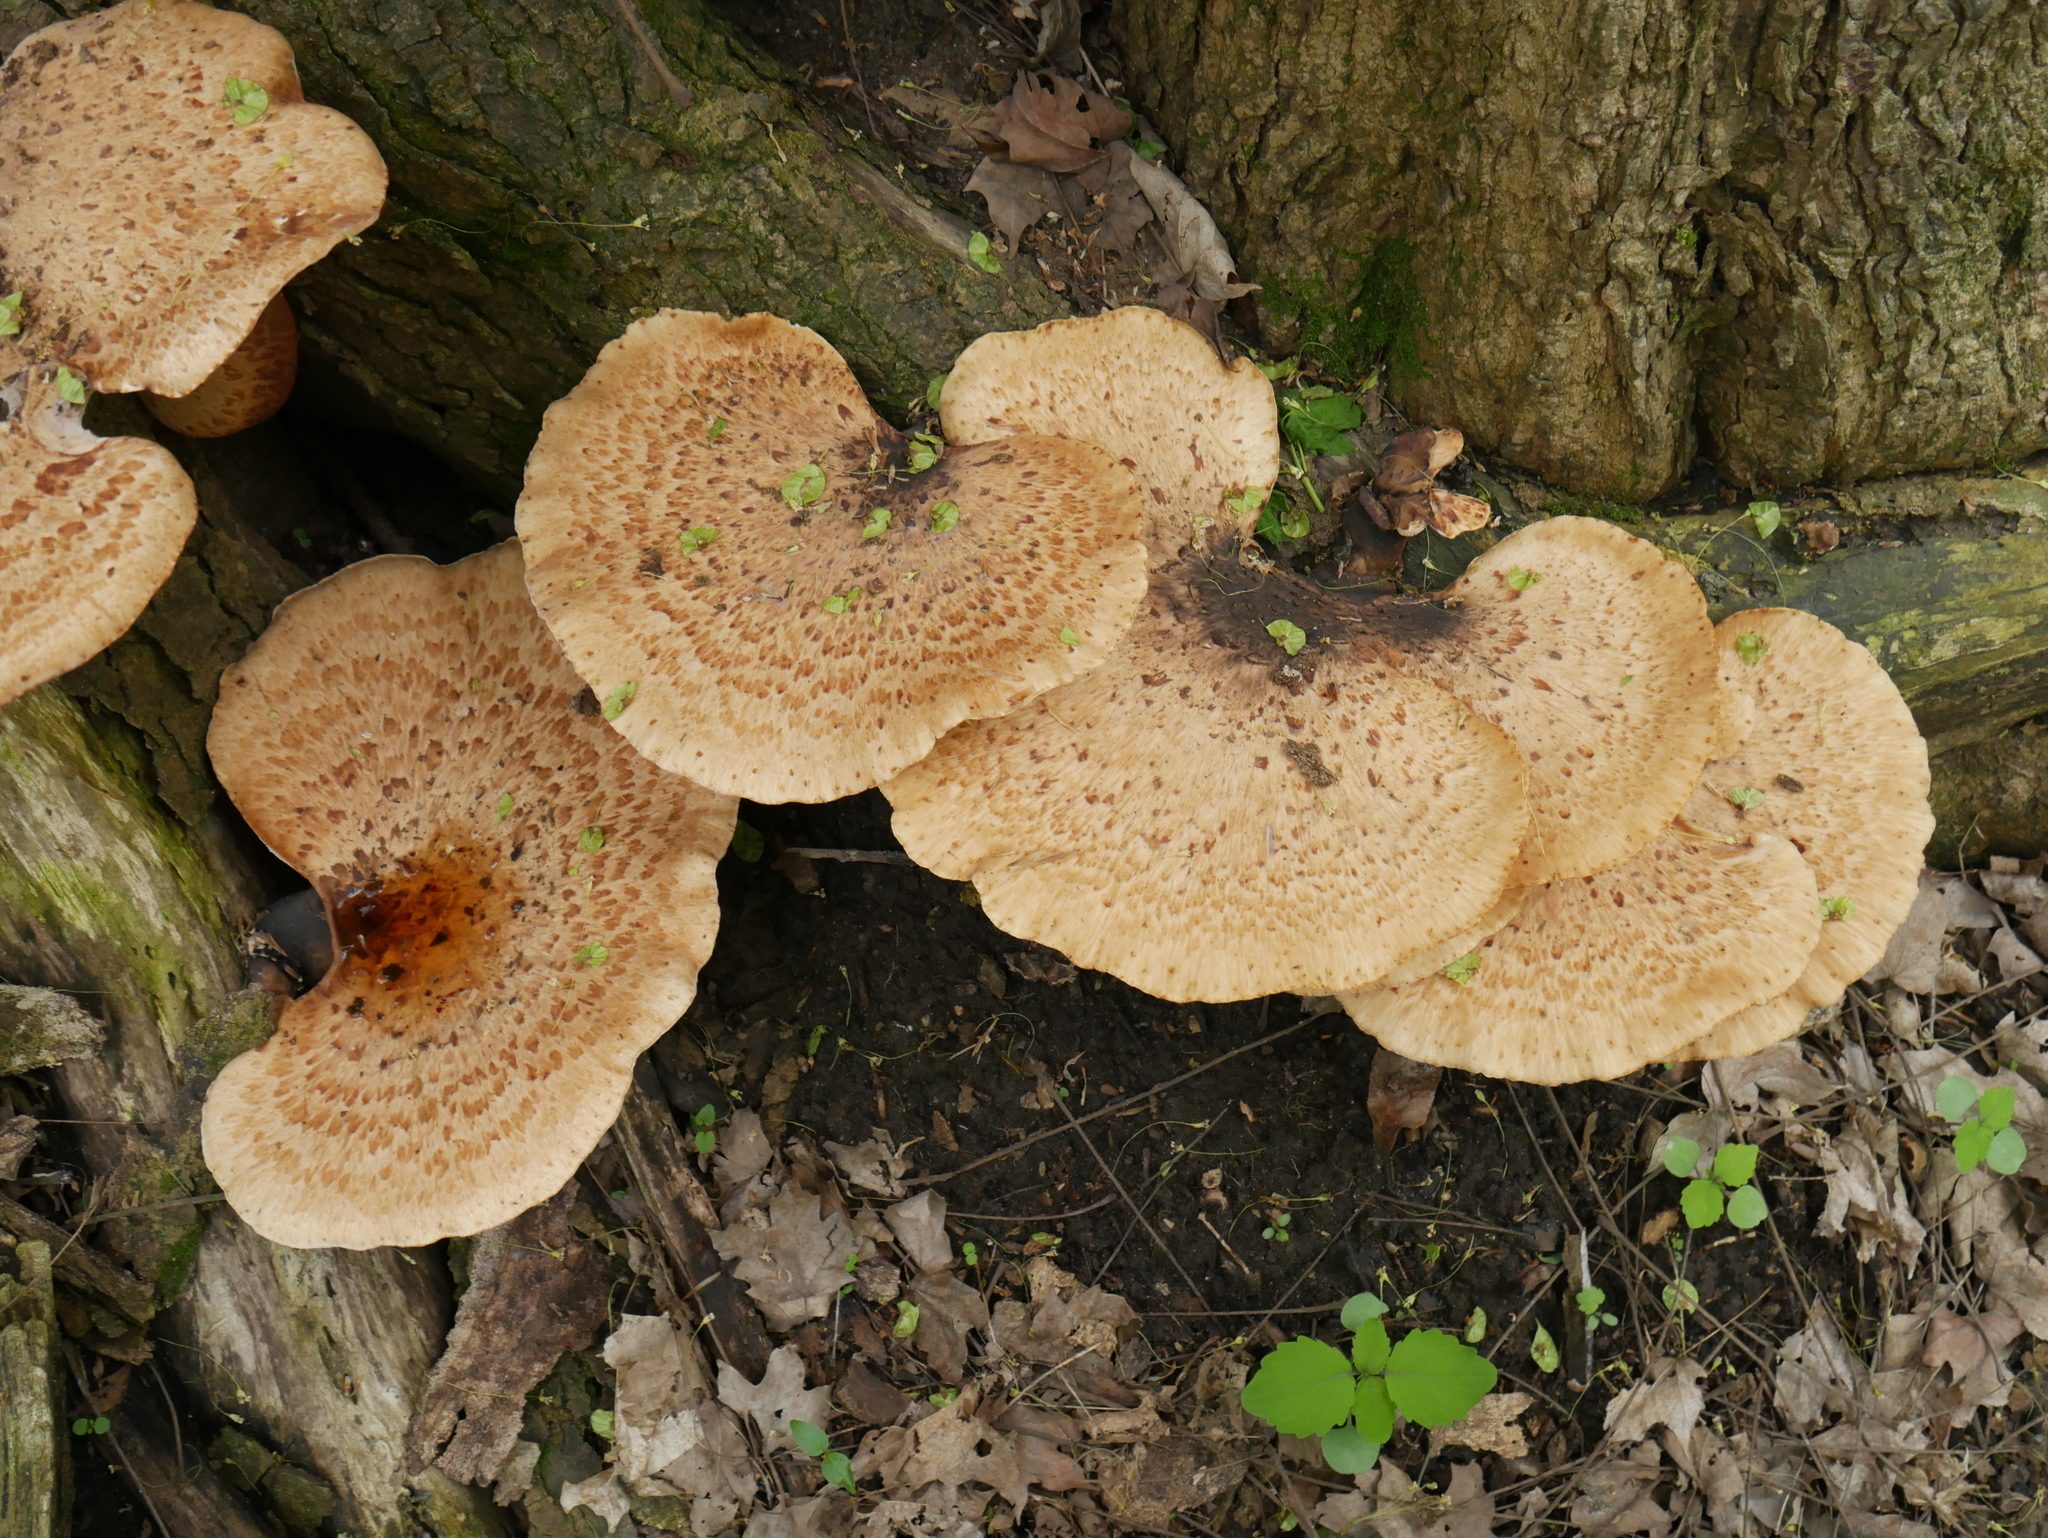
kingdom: Fungi
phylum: Basidiomycota
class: Agaricomycetes
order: Polyporales
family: Polyporaceae
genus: Cerioporus
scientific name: Cerioporus squamosus
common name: Dryad's saddle
